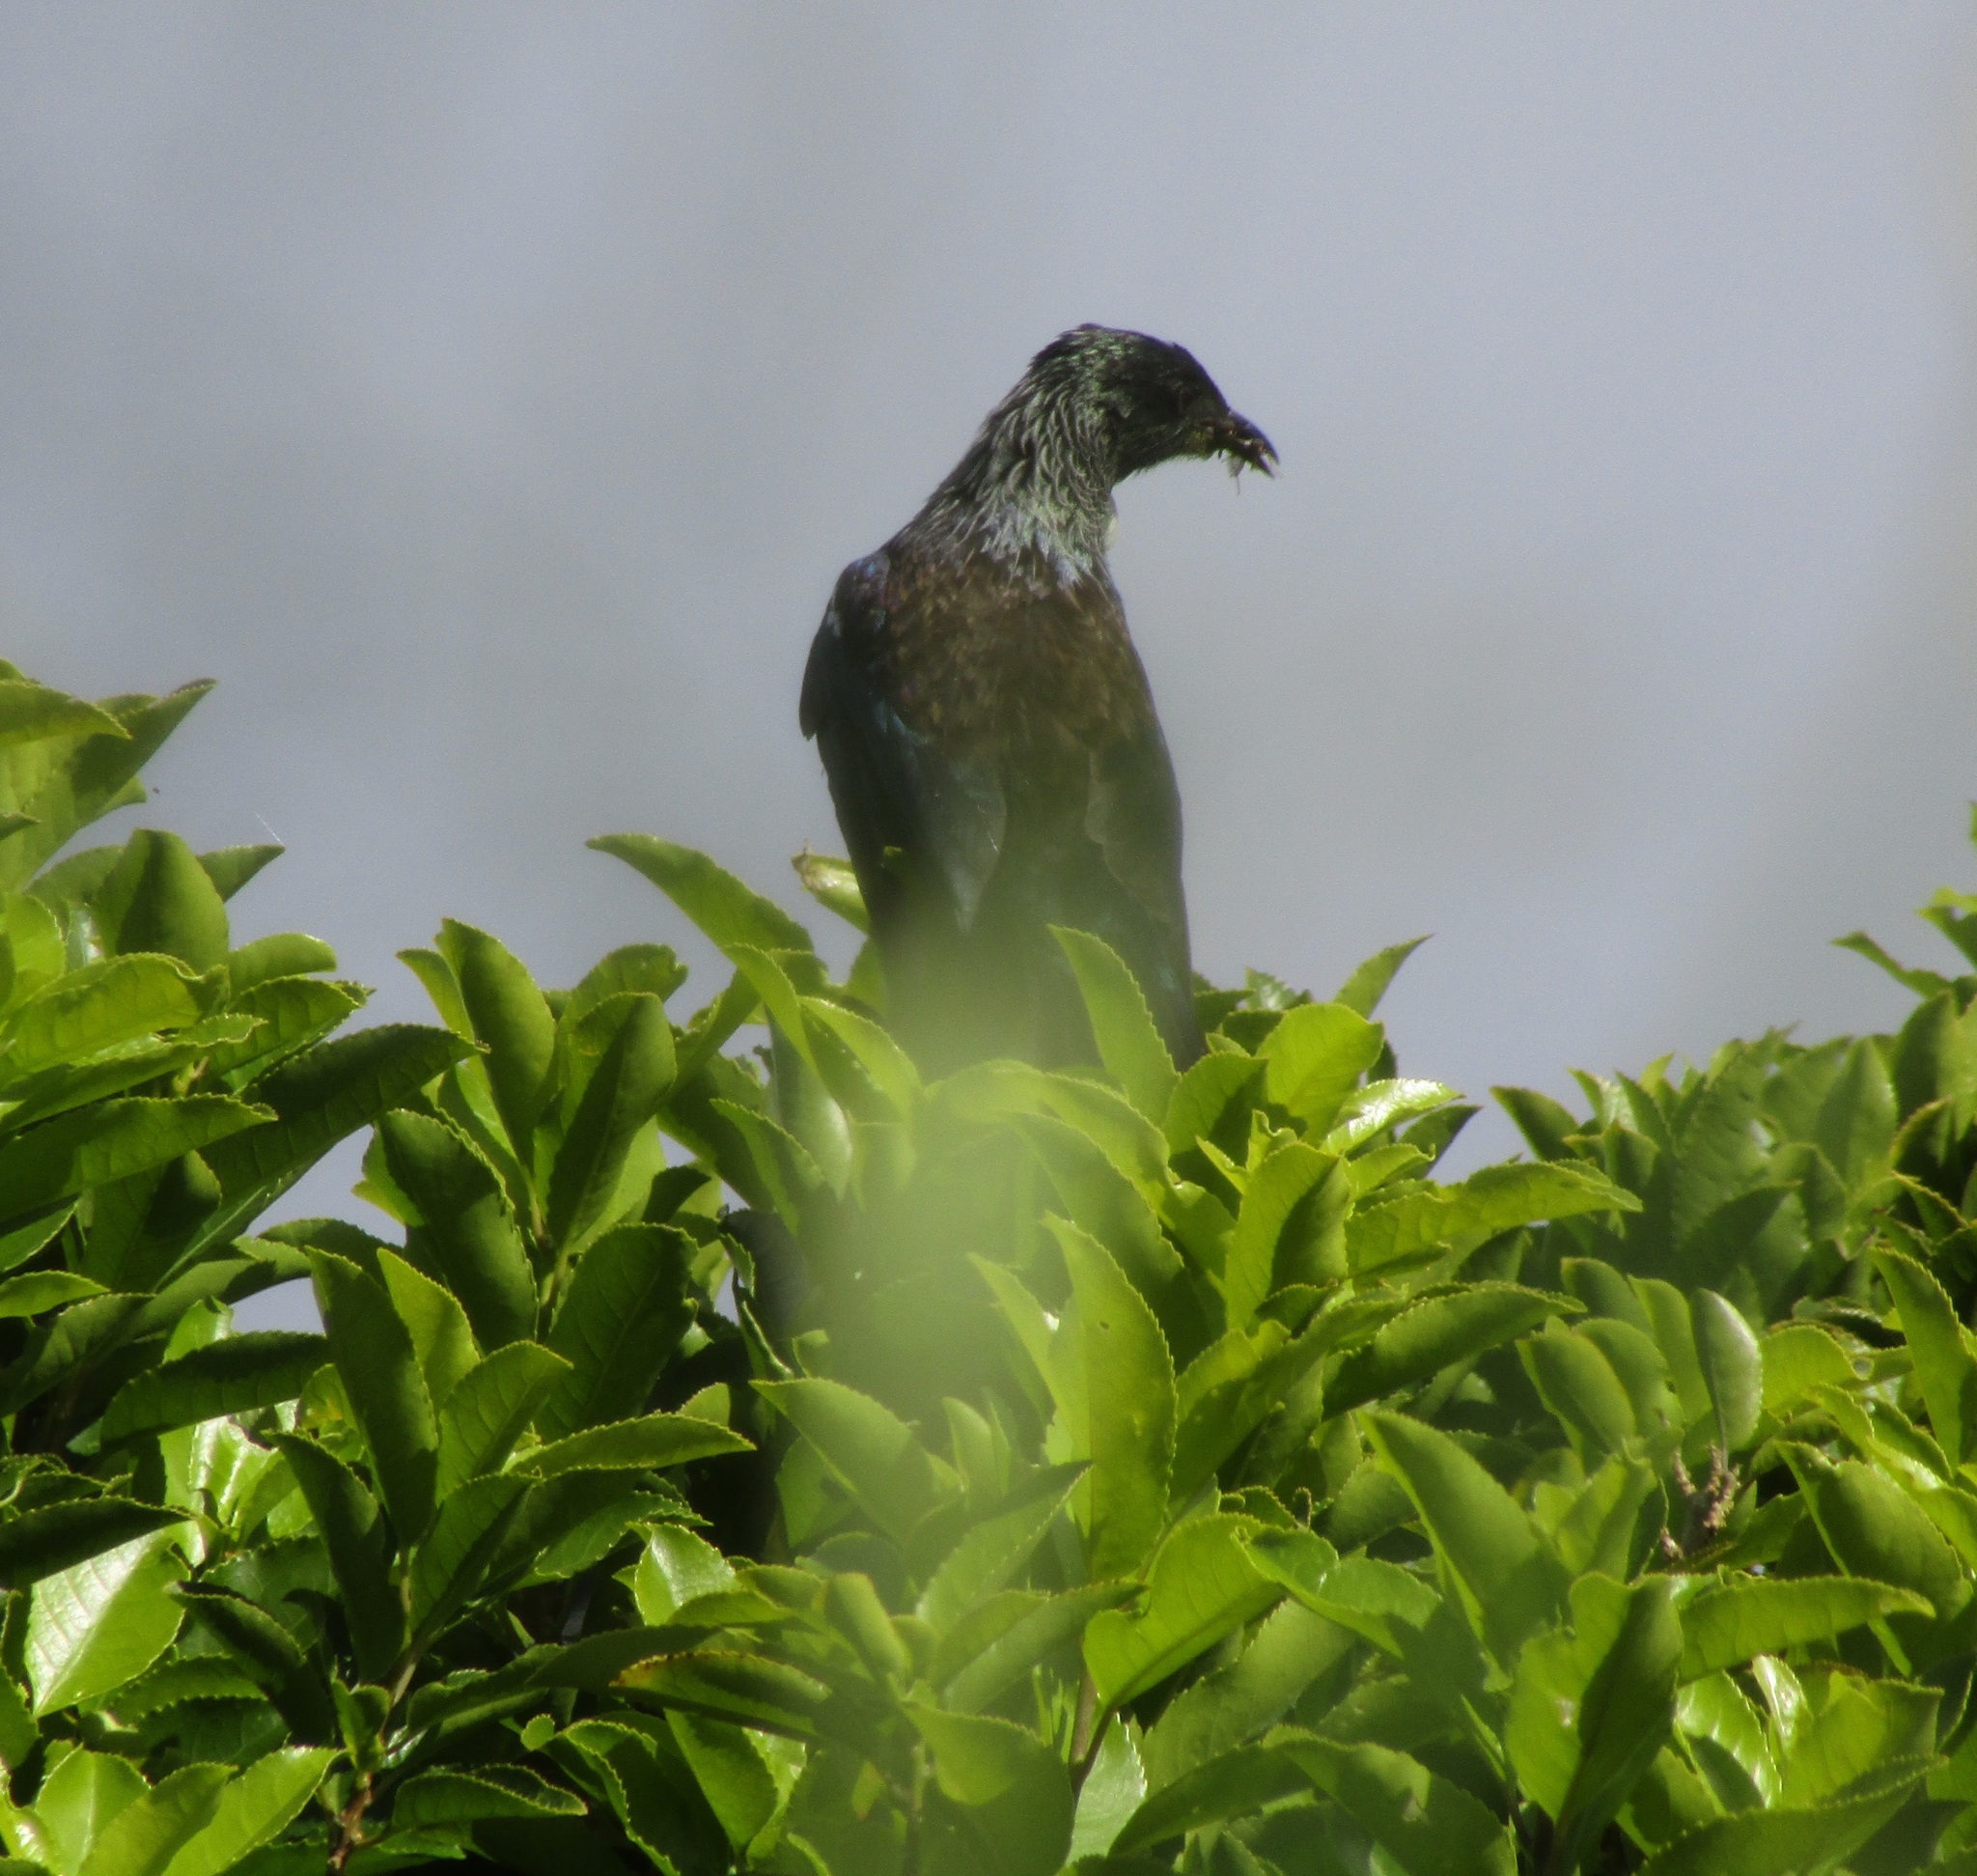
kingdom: Animalia
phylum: Chordata
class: Aves
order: Passeriformes
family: Meliphagidae
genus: Prosthemadera
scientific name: Prosthemadera novaeseelandiae
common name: Tui
